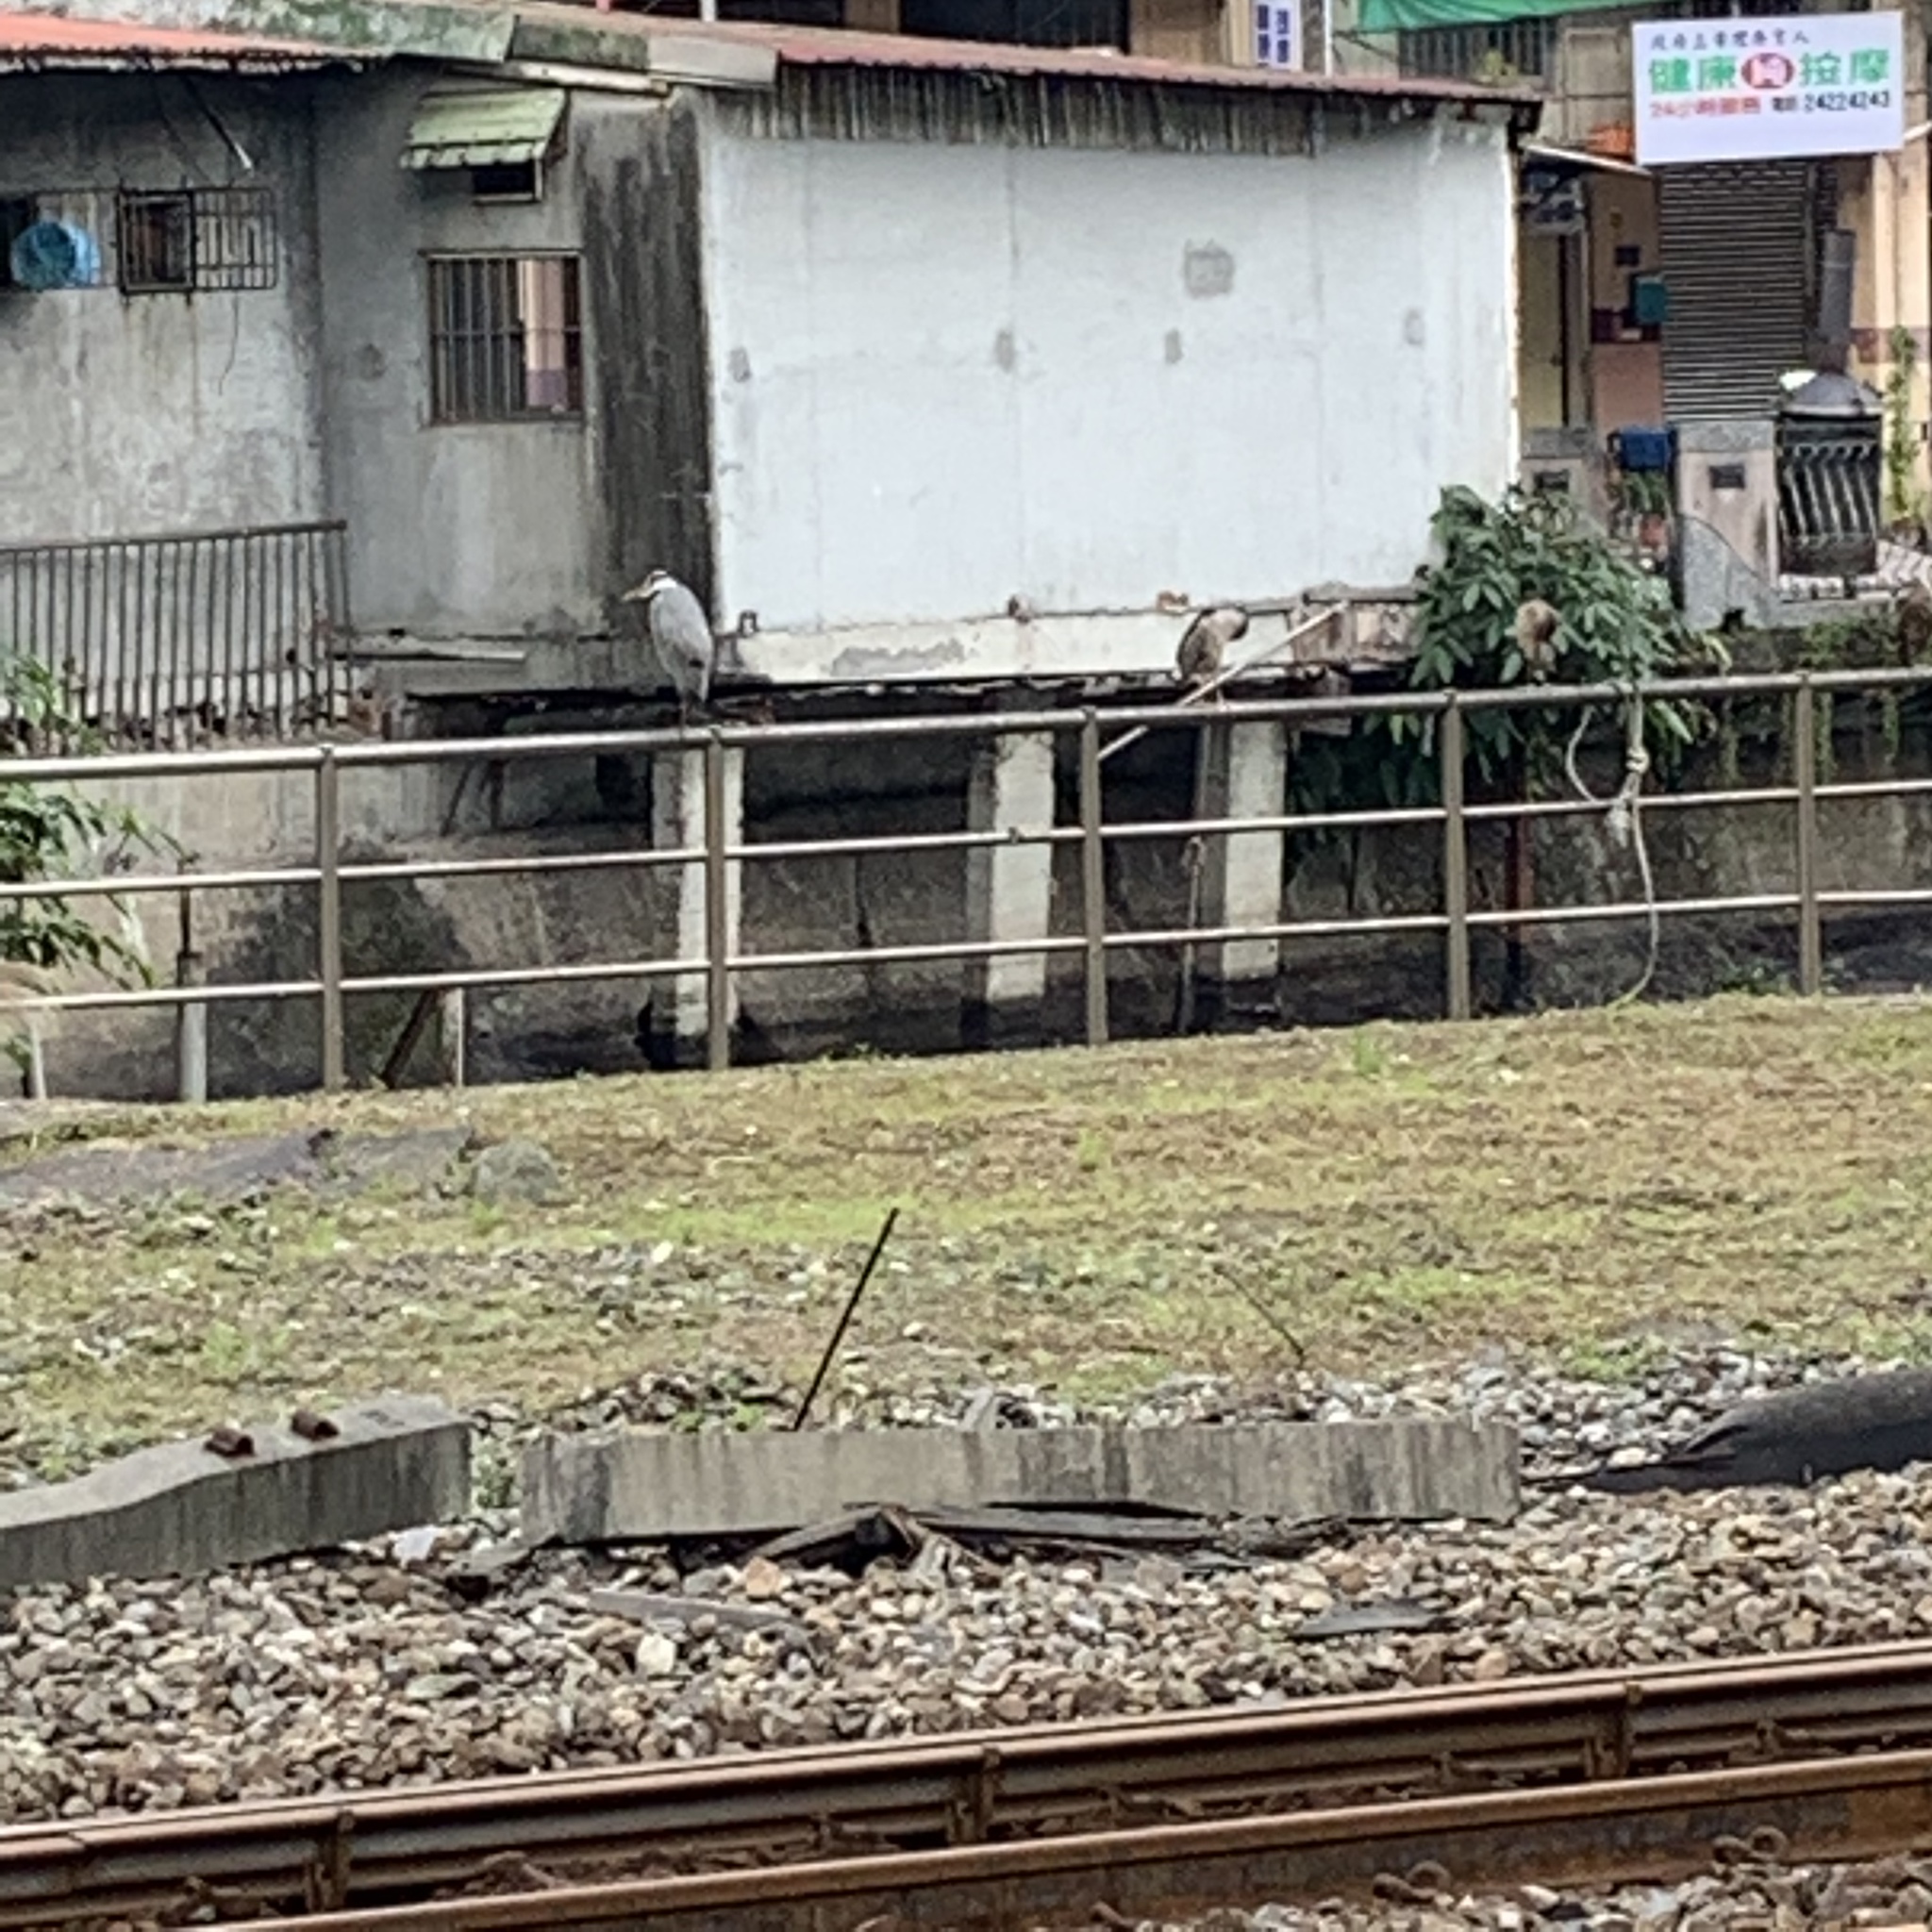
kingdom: Animalia
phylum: Chordata
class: Aves
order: Pelecaniformes
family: Ardeidae
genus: Ardea
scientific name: Ardea cinerea
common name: Grey heron
